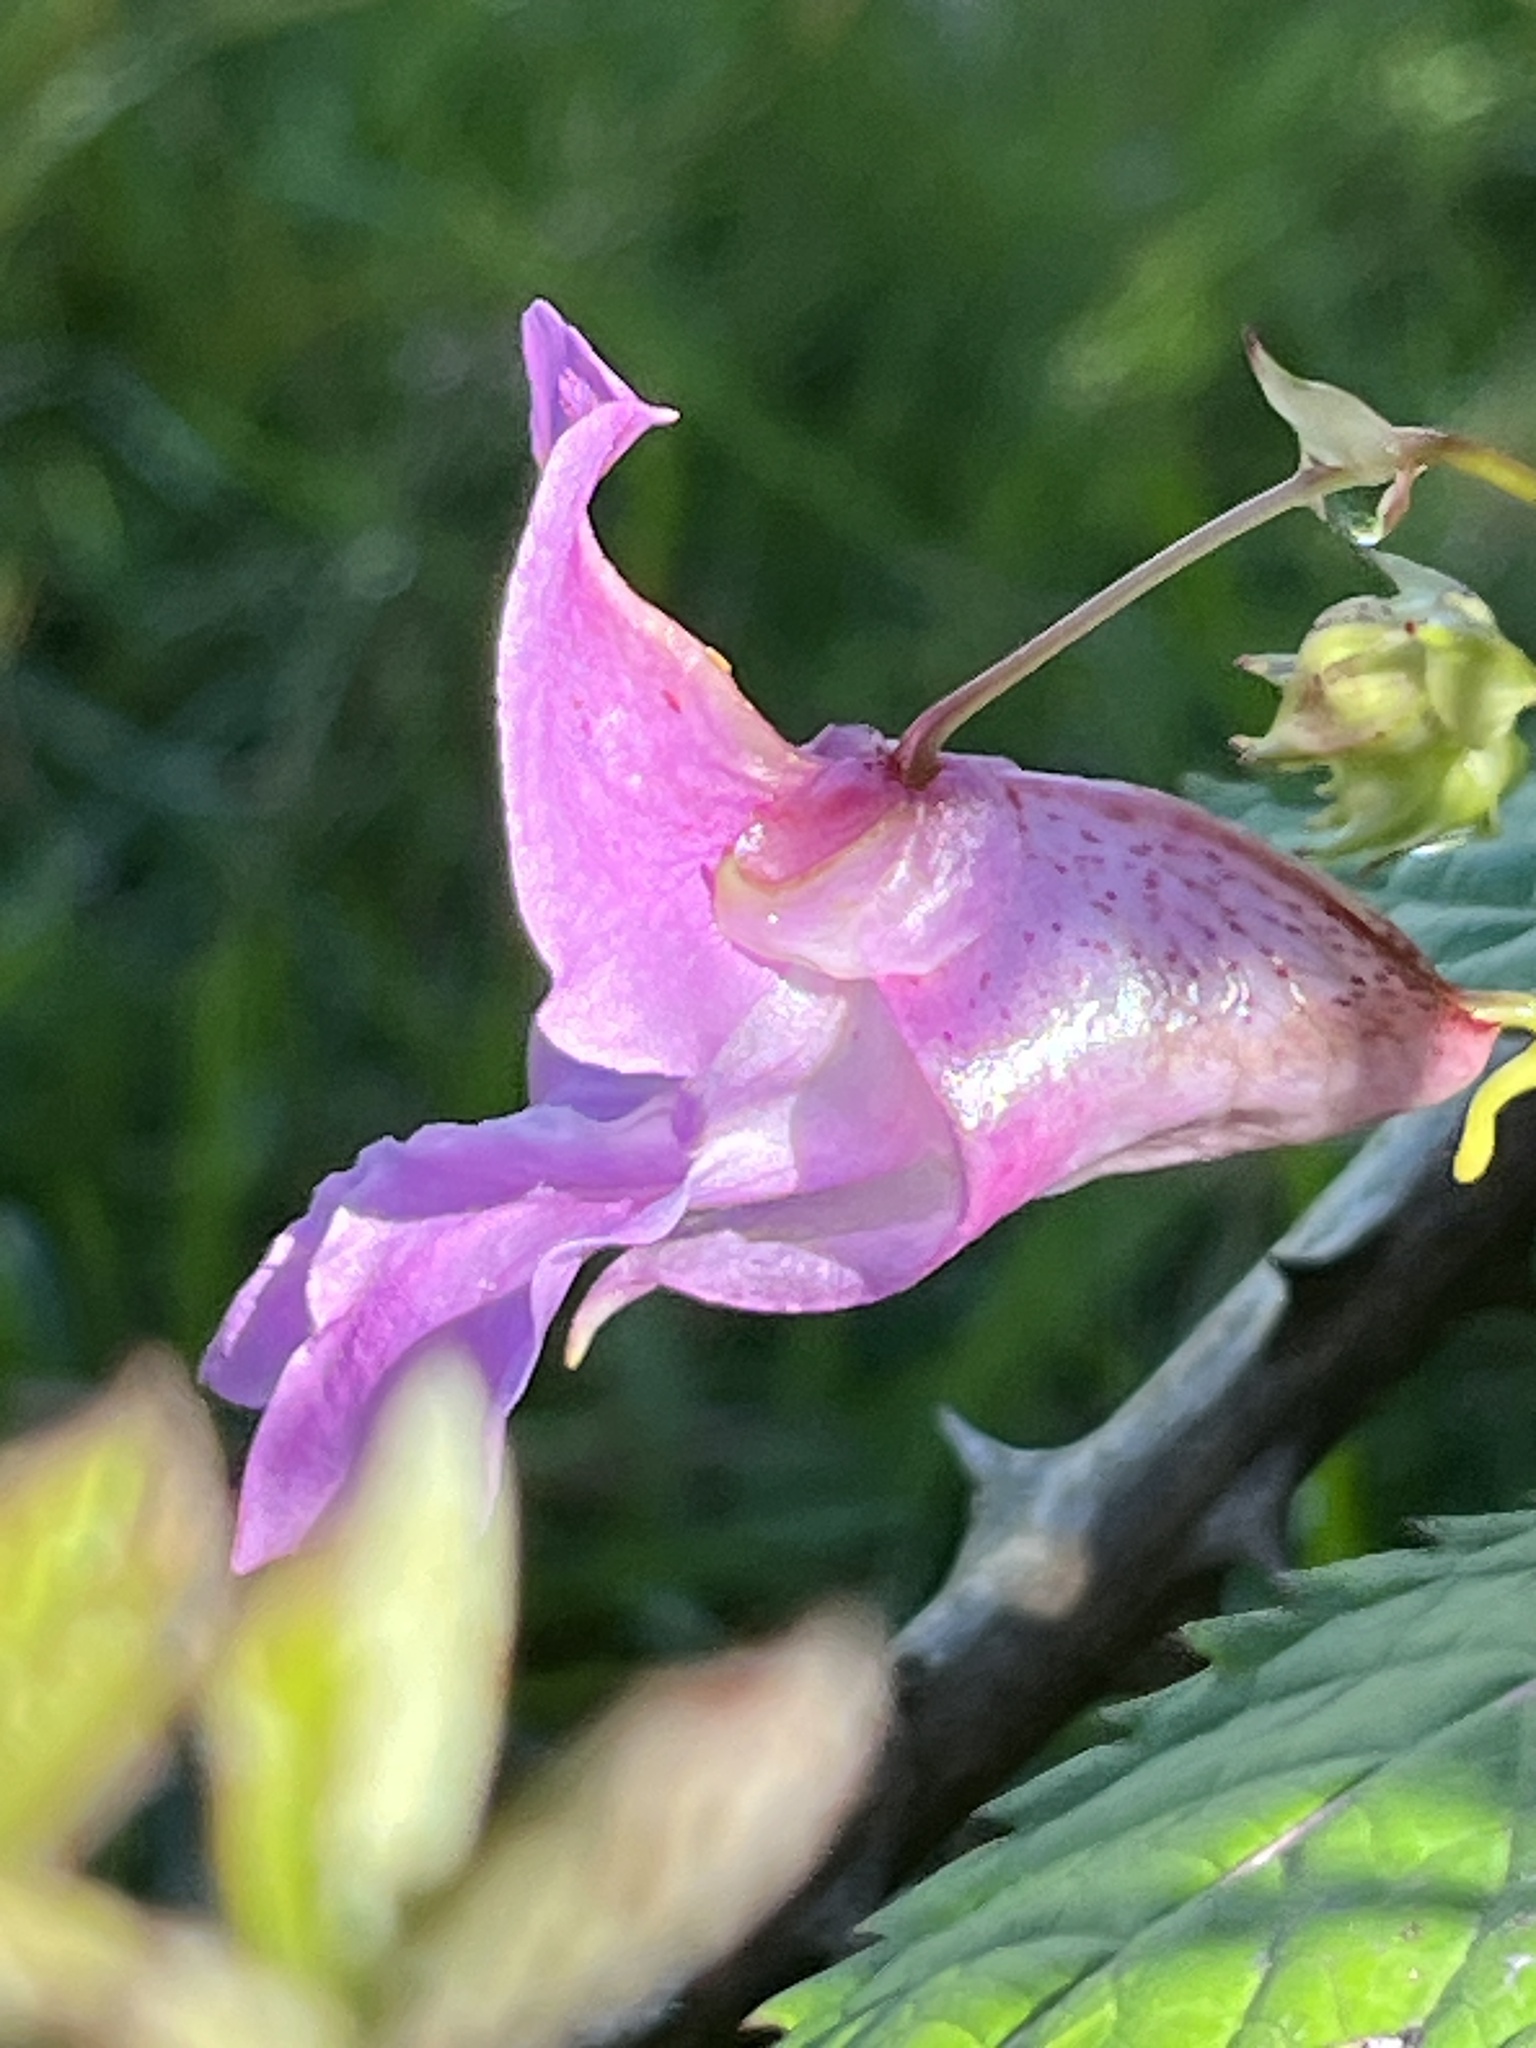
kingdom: Plantae
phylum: Tracheophyta
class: Magnoliopsida
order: Ericales
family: Balsaminaceae
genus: Impatiens
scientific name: Impatiens glandulifera
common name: Himalayan balsam
